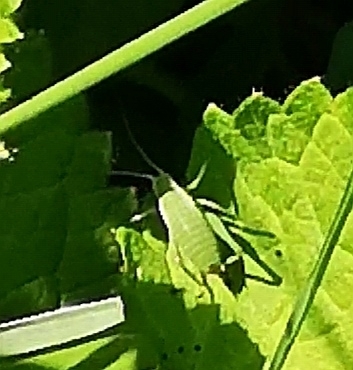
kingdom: Animalia
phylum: Arthropoda
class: Insecta
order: Orthoptera
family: Tettigoniidae
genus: Isophya
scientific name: Isophya brevicauda
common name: Short-tailed plump bush-cricket
